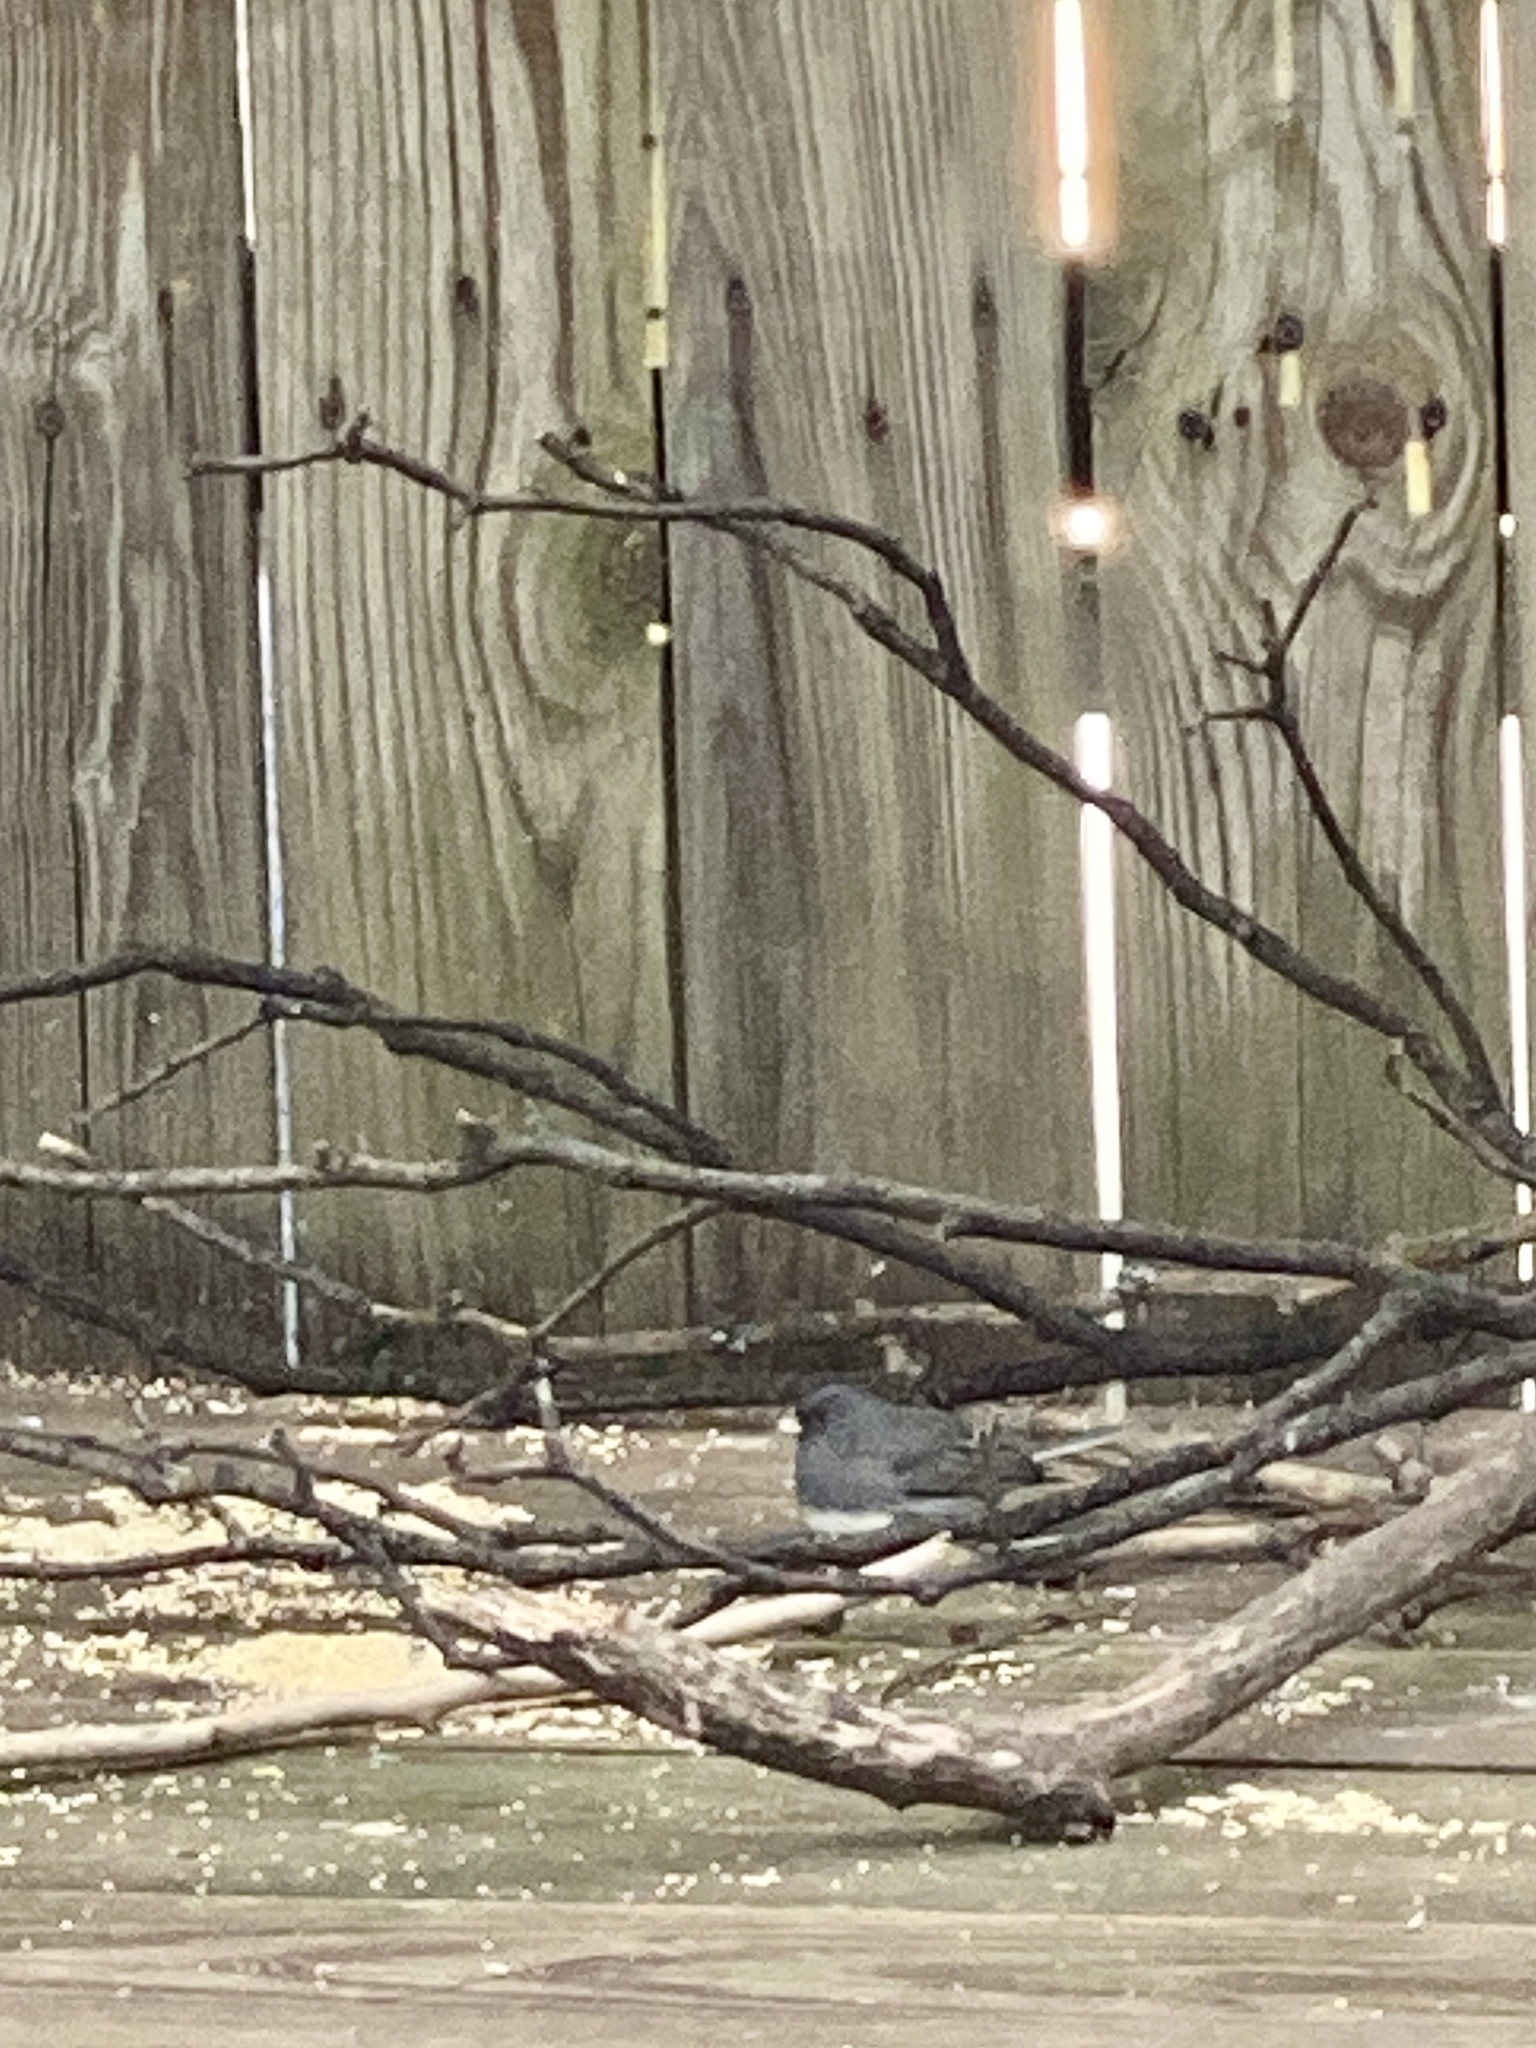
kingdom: Animalia
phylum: Chordata
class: Aves
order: Passeriformes
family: Passerellidae
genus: Junco
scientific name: Junco hyemalis
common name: Dark-eyed junco
